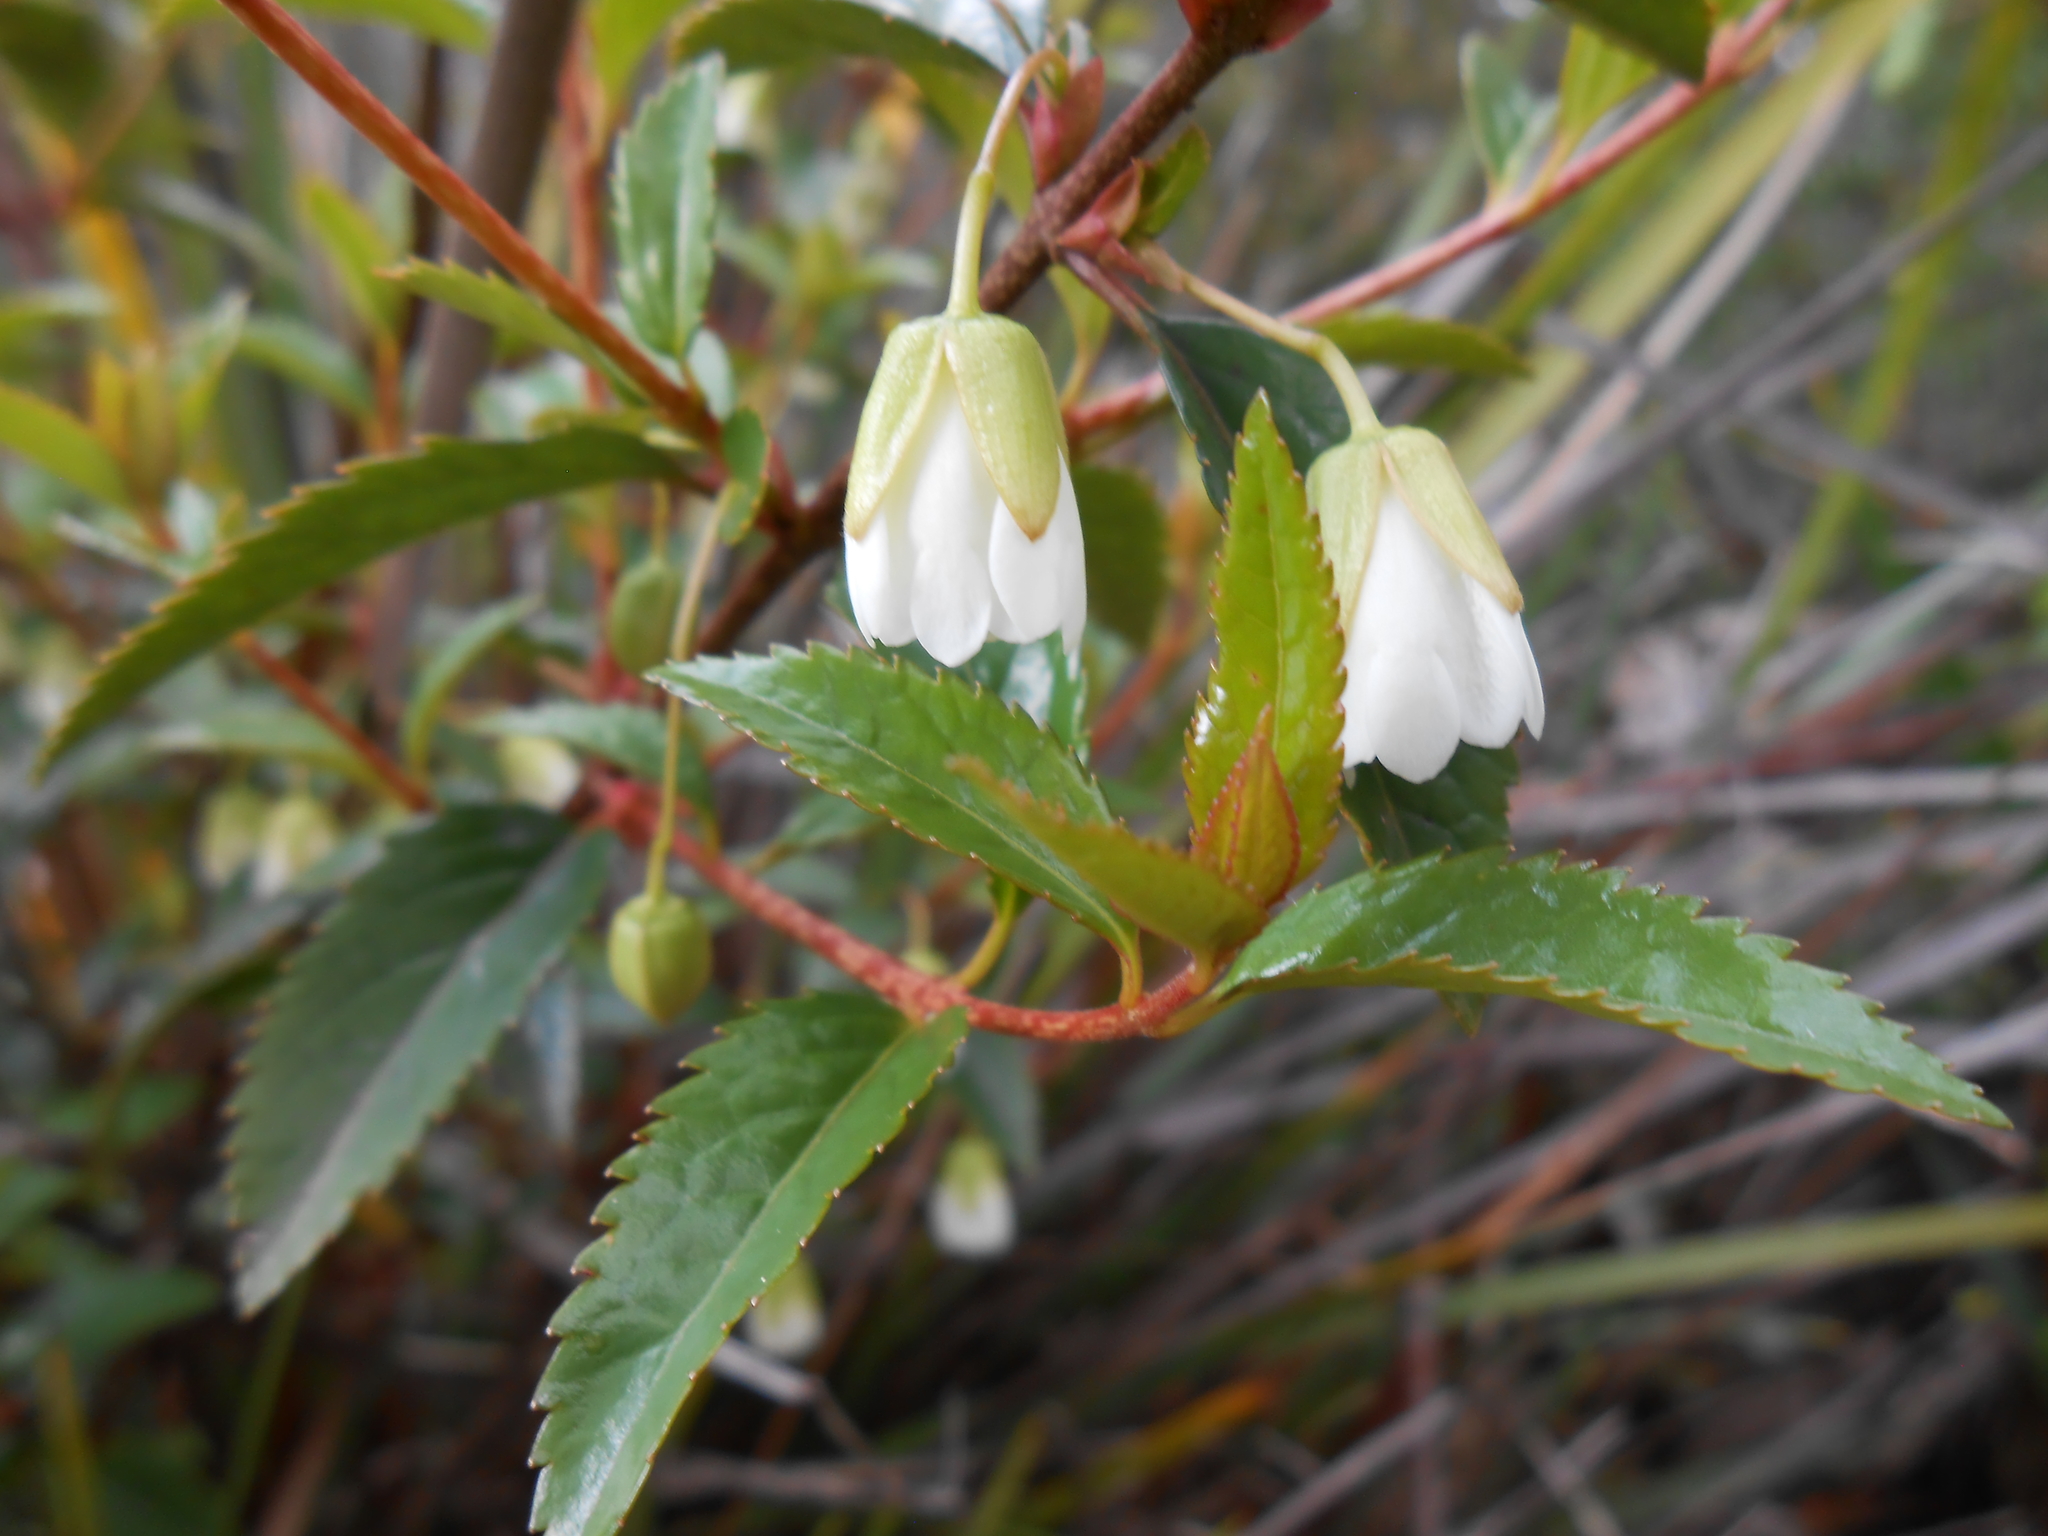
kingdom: Plantae
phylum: Tracheophyta
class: Magnoliopsida
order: Oxalidales
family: Elaeocarpaceae
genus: Aristotelia
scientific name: Aristotelia peduncularis
